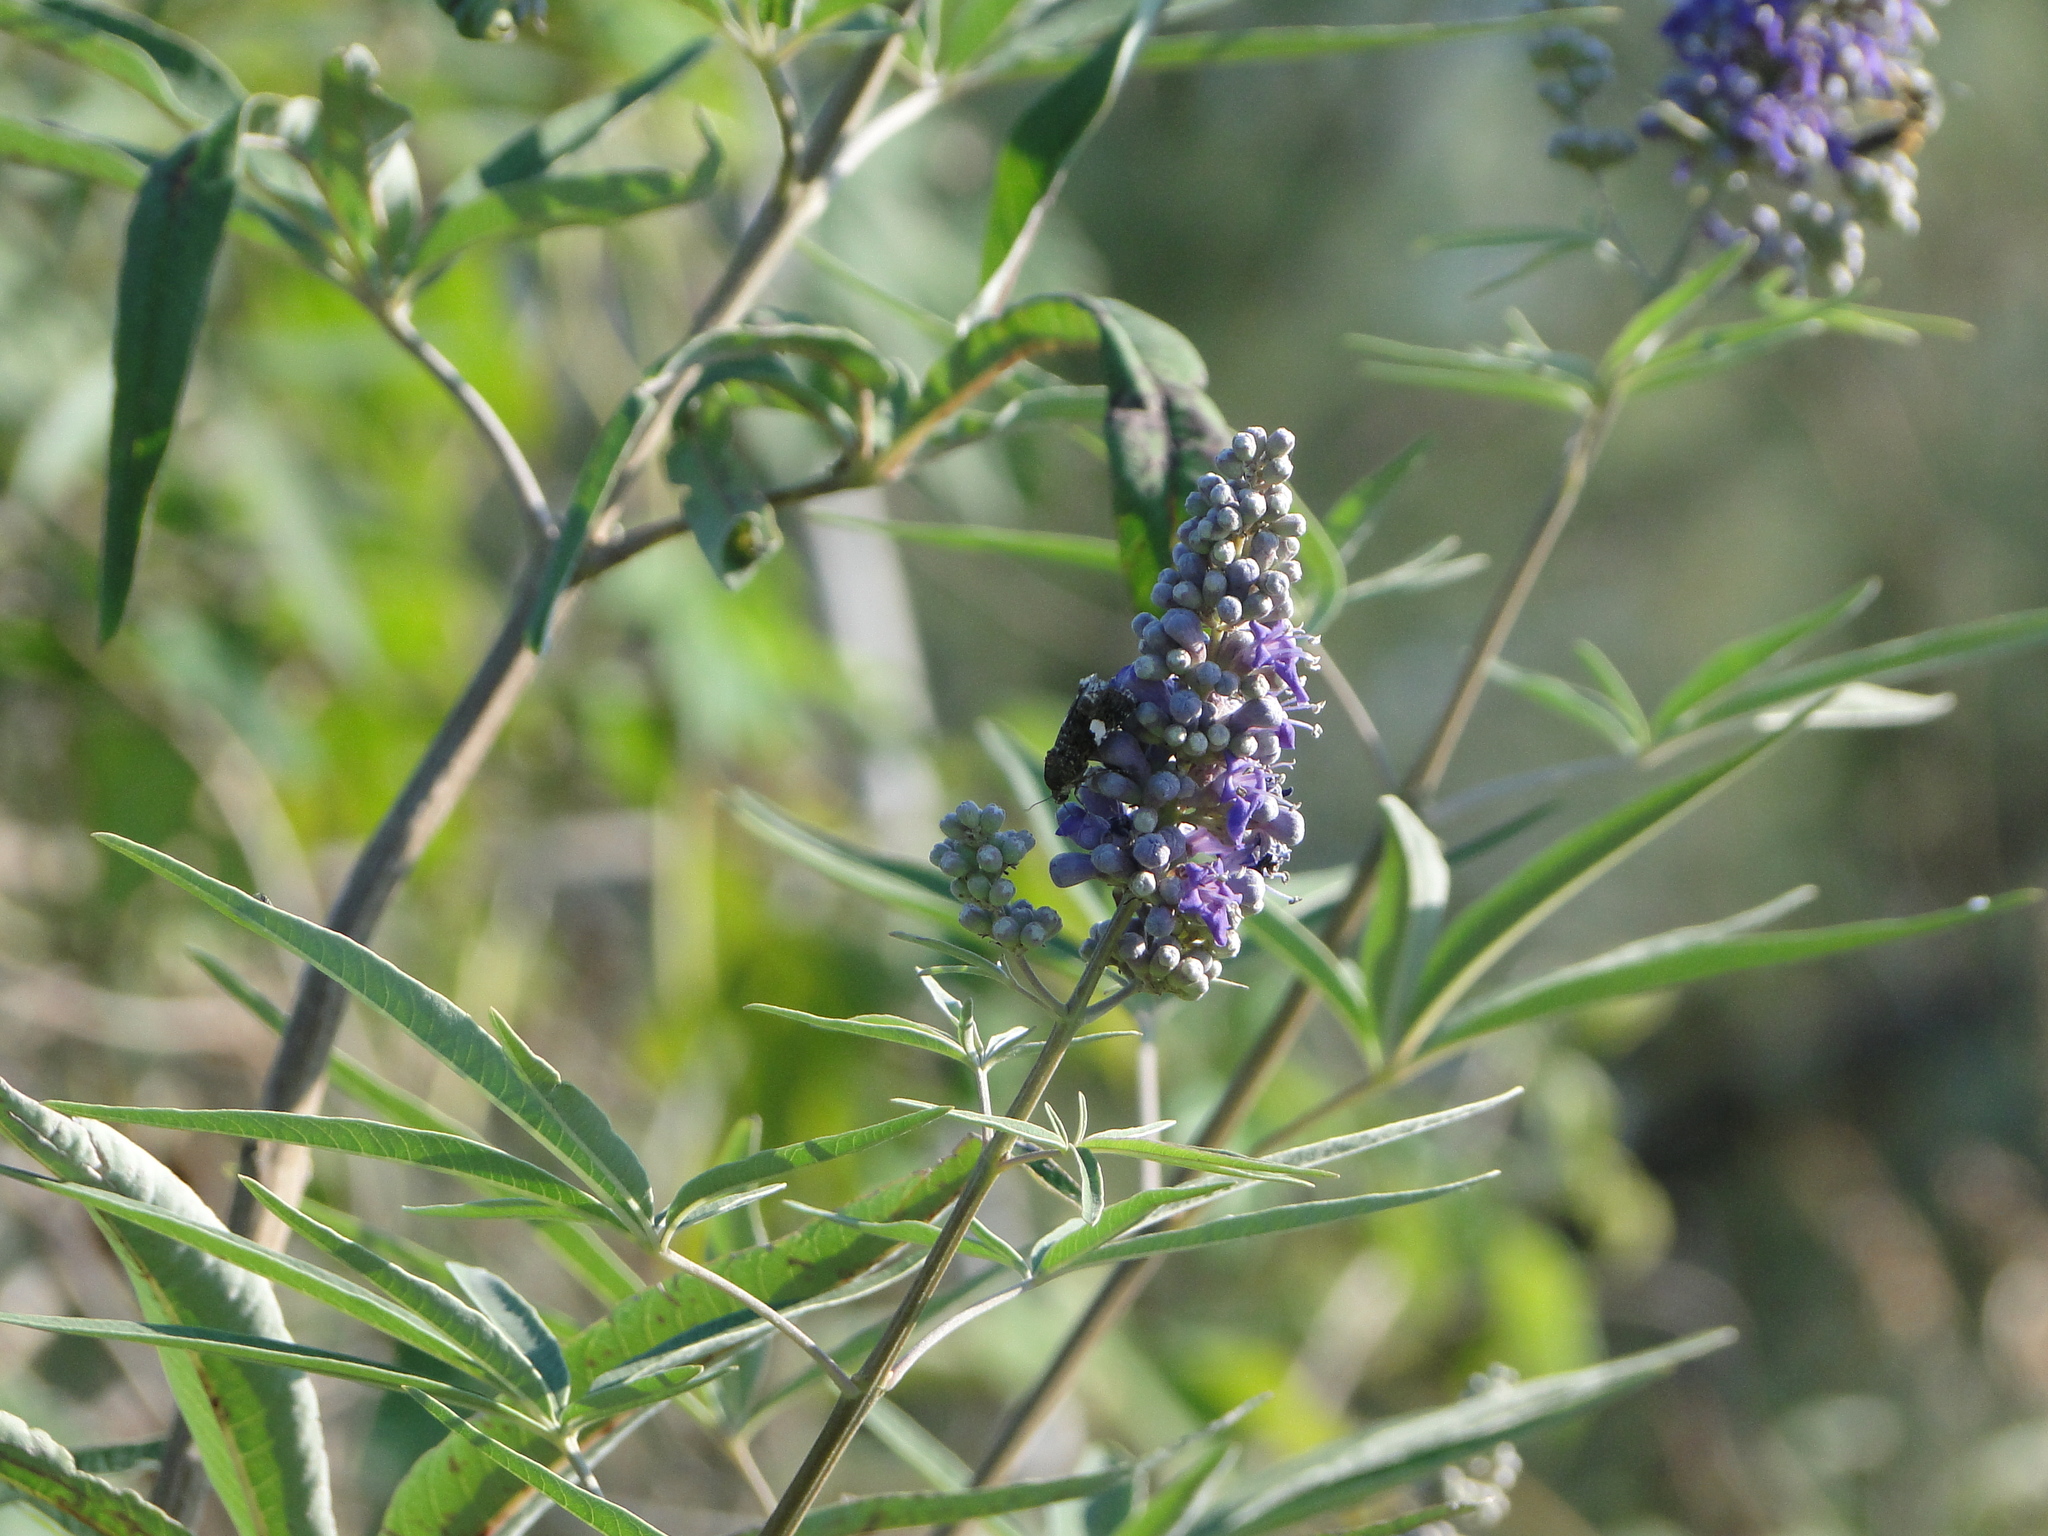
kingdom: Animalia
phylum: Arthropoda
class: Insecta
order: Lepidoptera
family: Erebidae
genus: Tyta
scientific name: Tyta luctuosa
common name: Four-spotted
